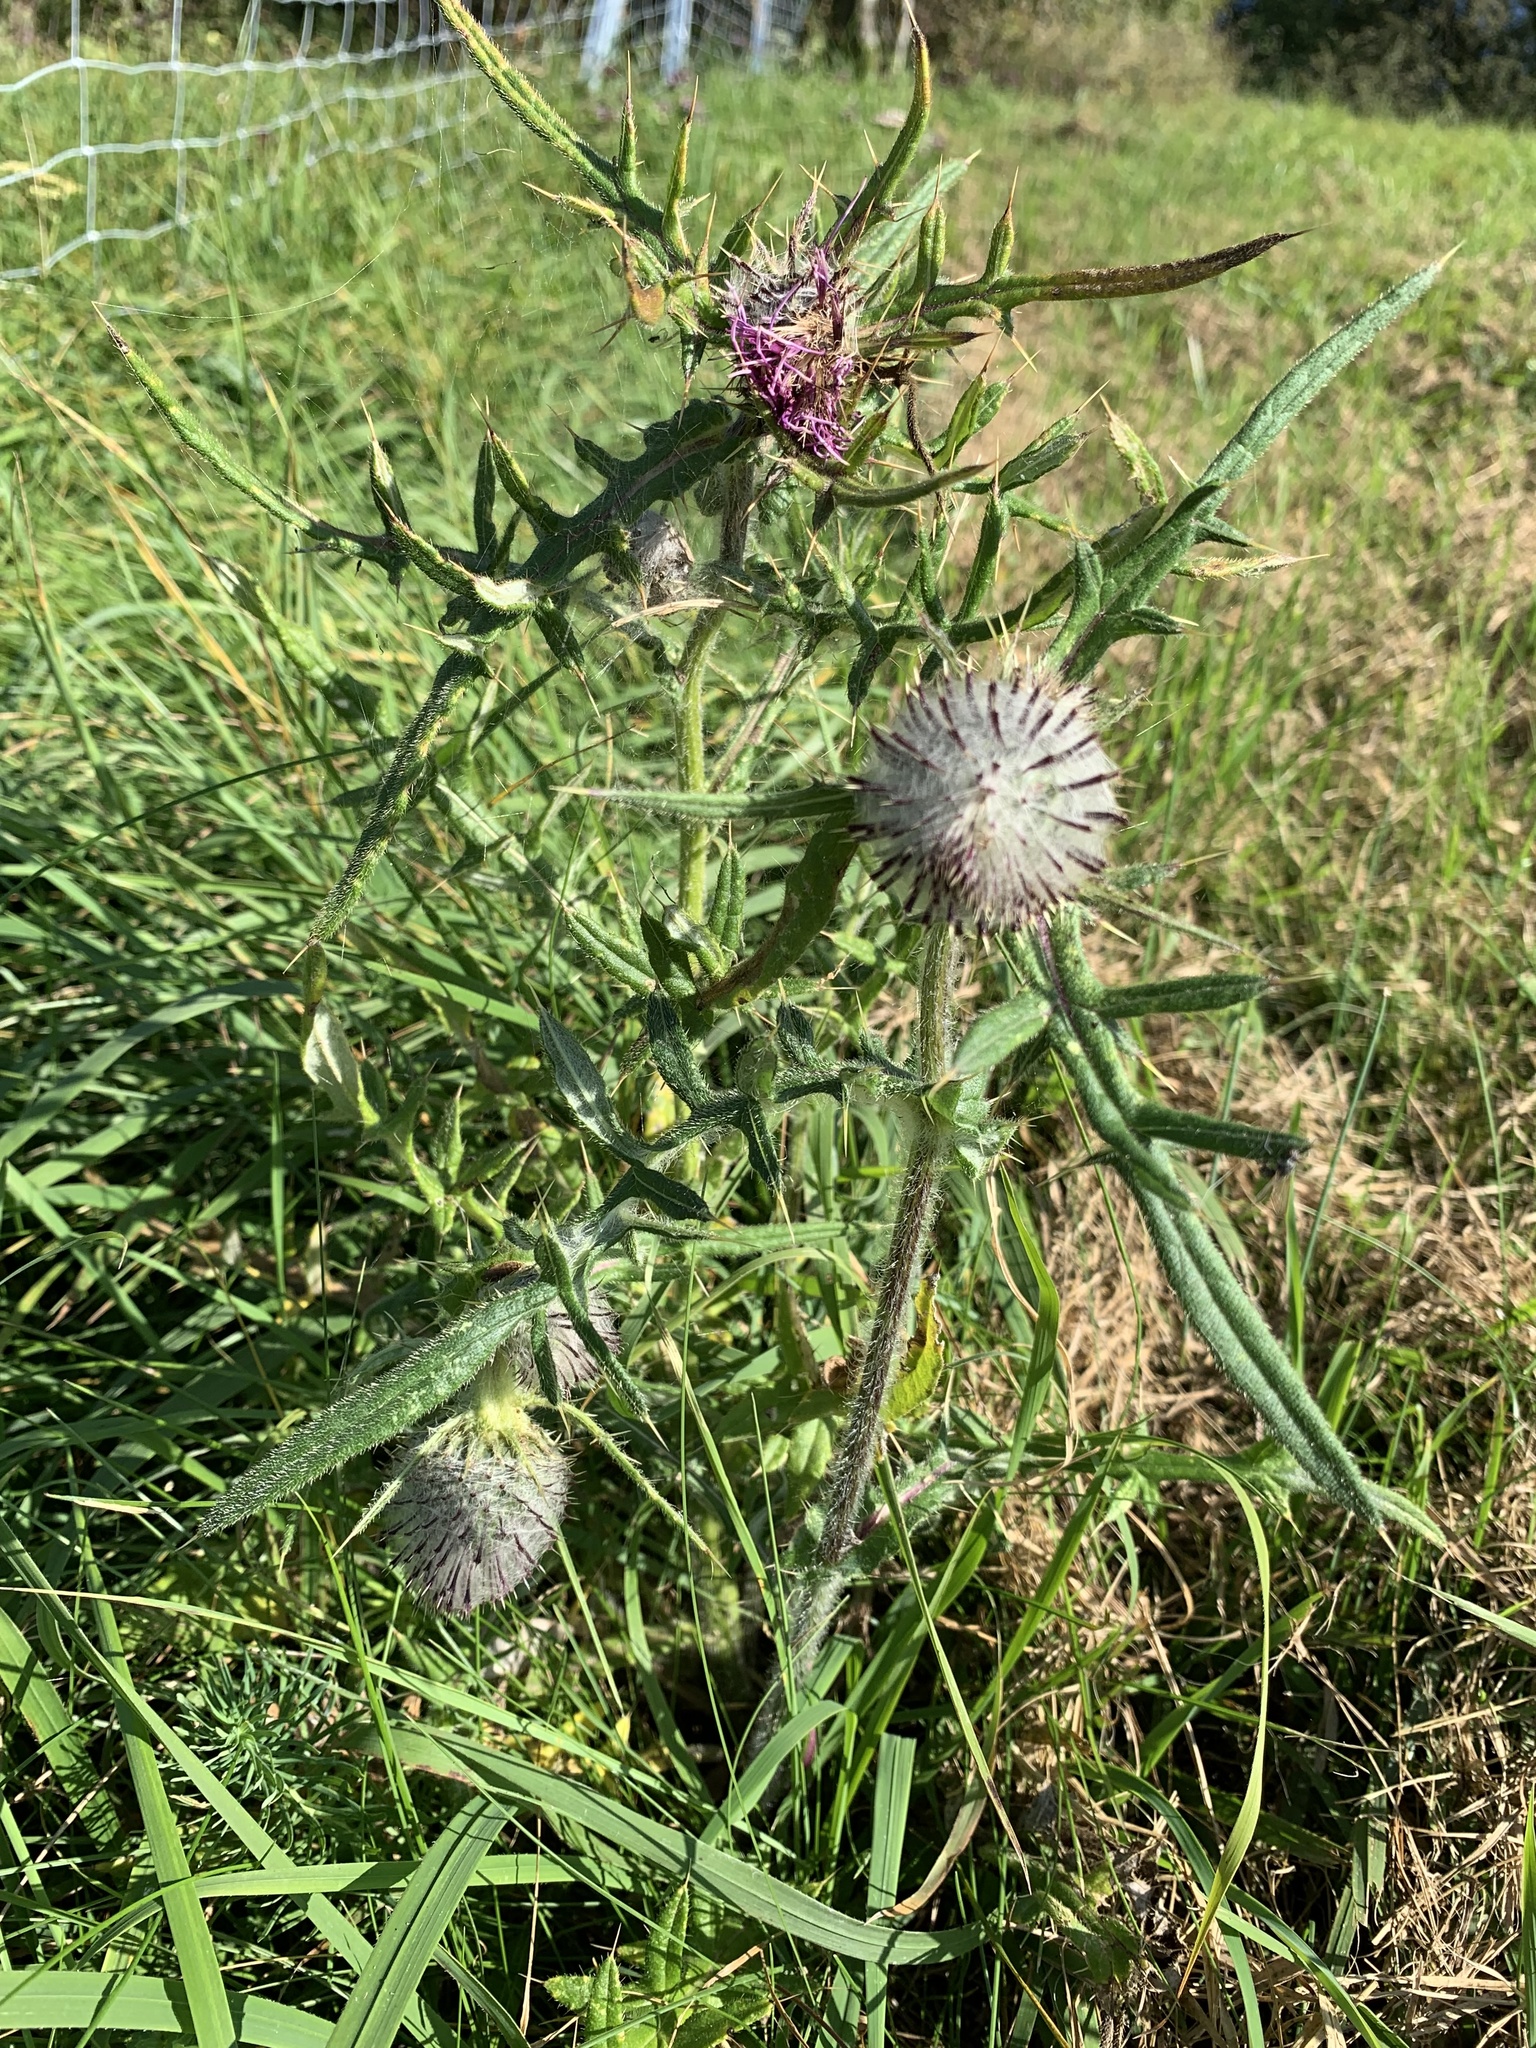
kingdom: Plantae
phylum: Tracheophyta
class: Magnoliopsida
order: Asterales
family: Asteraceae
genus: Lophiolepis
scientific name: Lophiolepis eriophora
